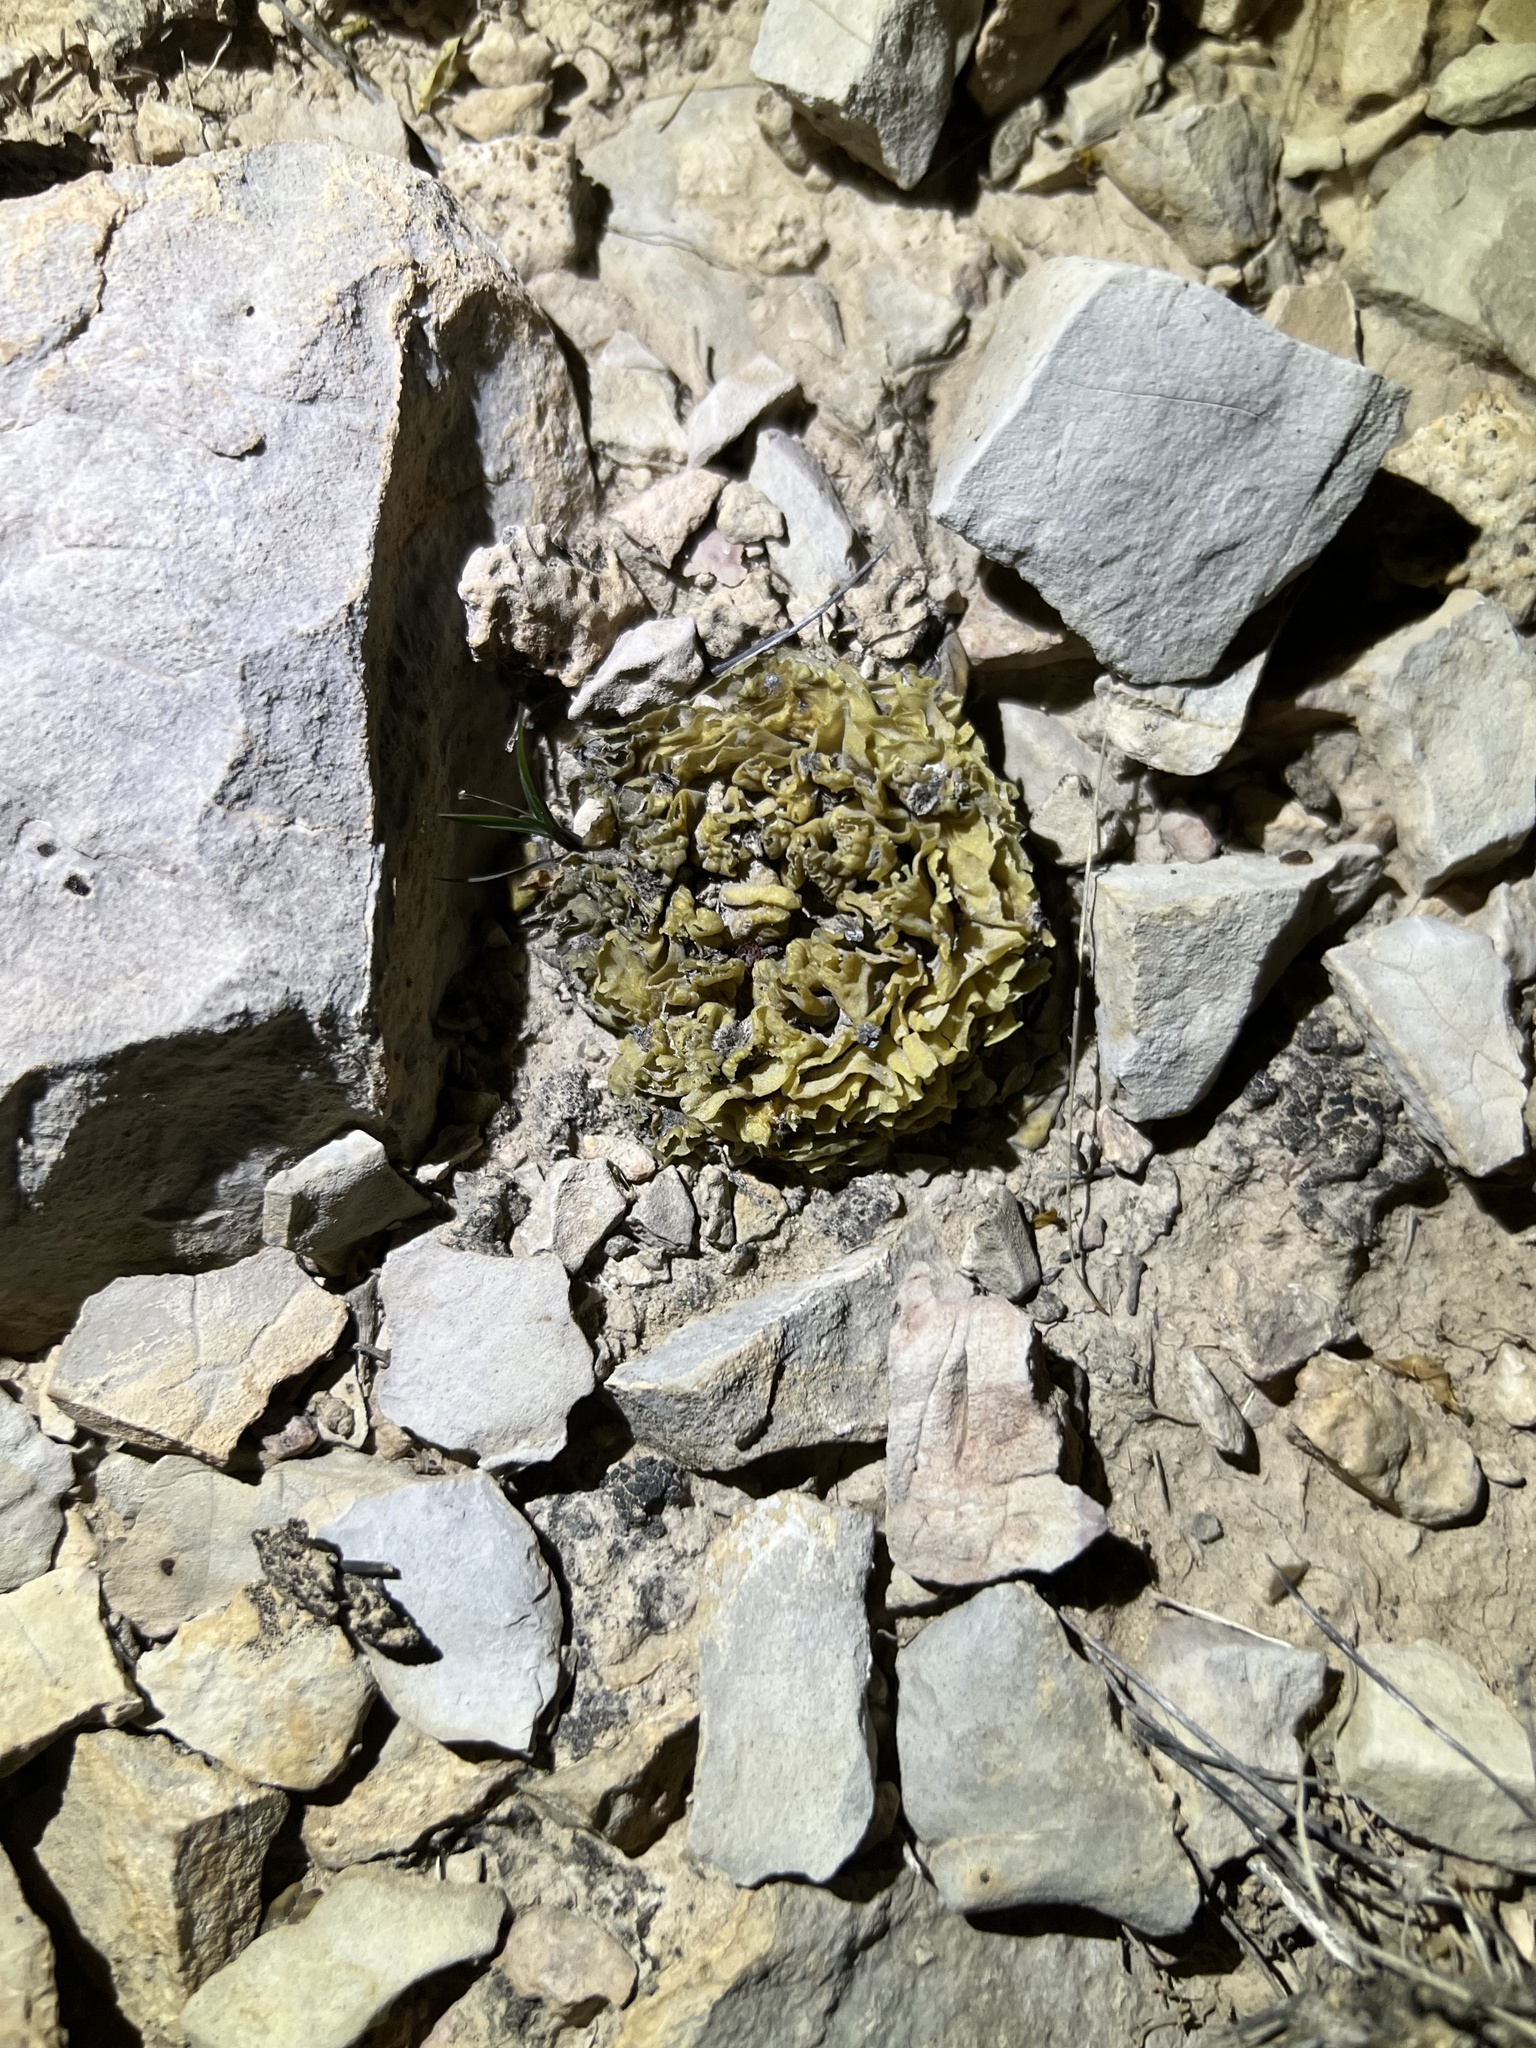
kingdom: Plantae
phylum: Tracheophyta
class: Magnoliopsida
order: Caryophyllales
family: Cactaceae
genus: Ariocarpus
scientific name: Ariocarpus fissuratus
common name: Chautle-living rock
